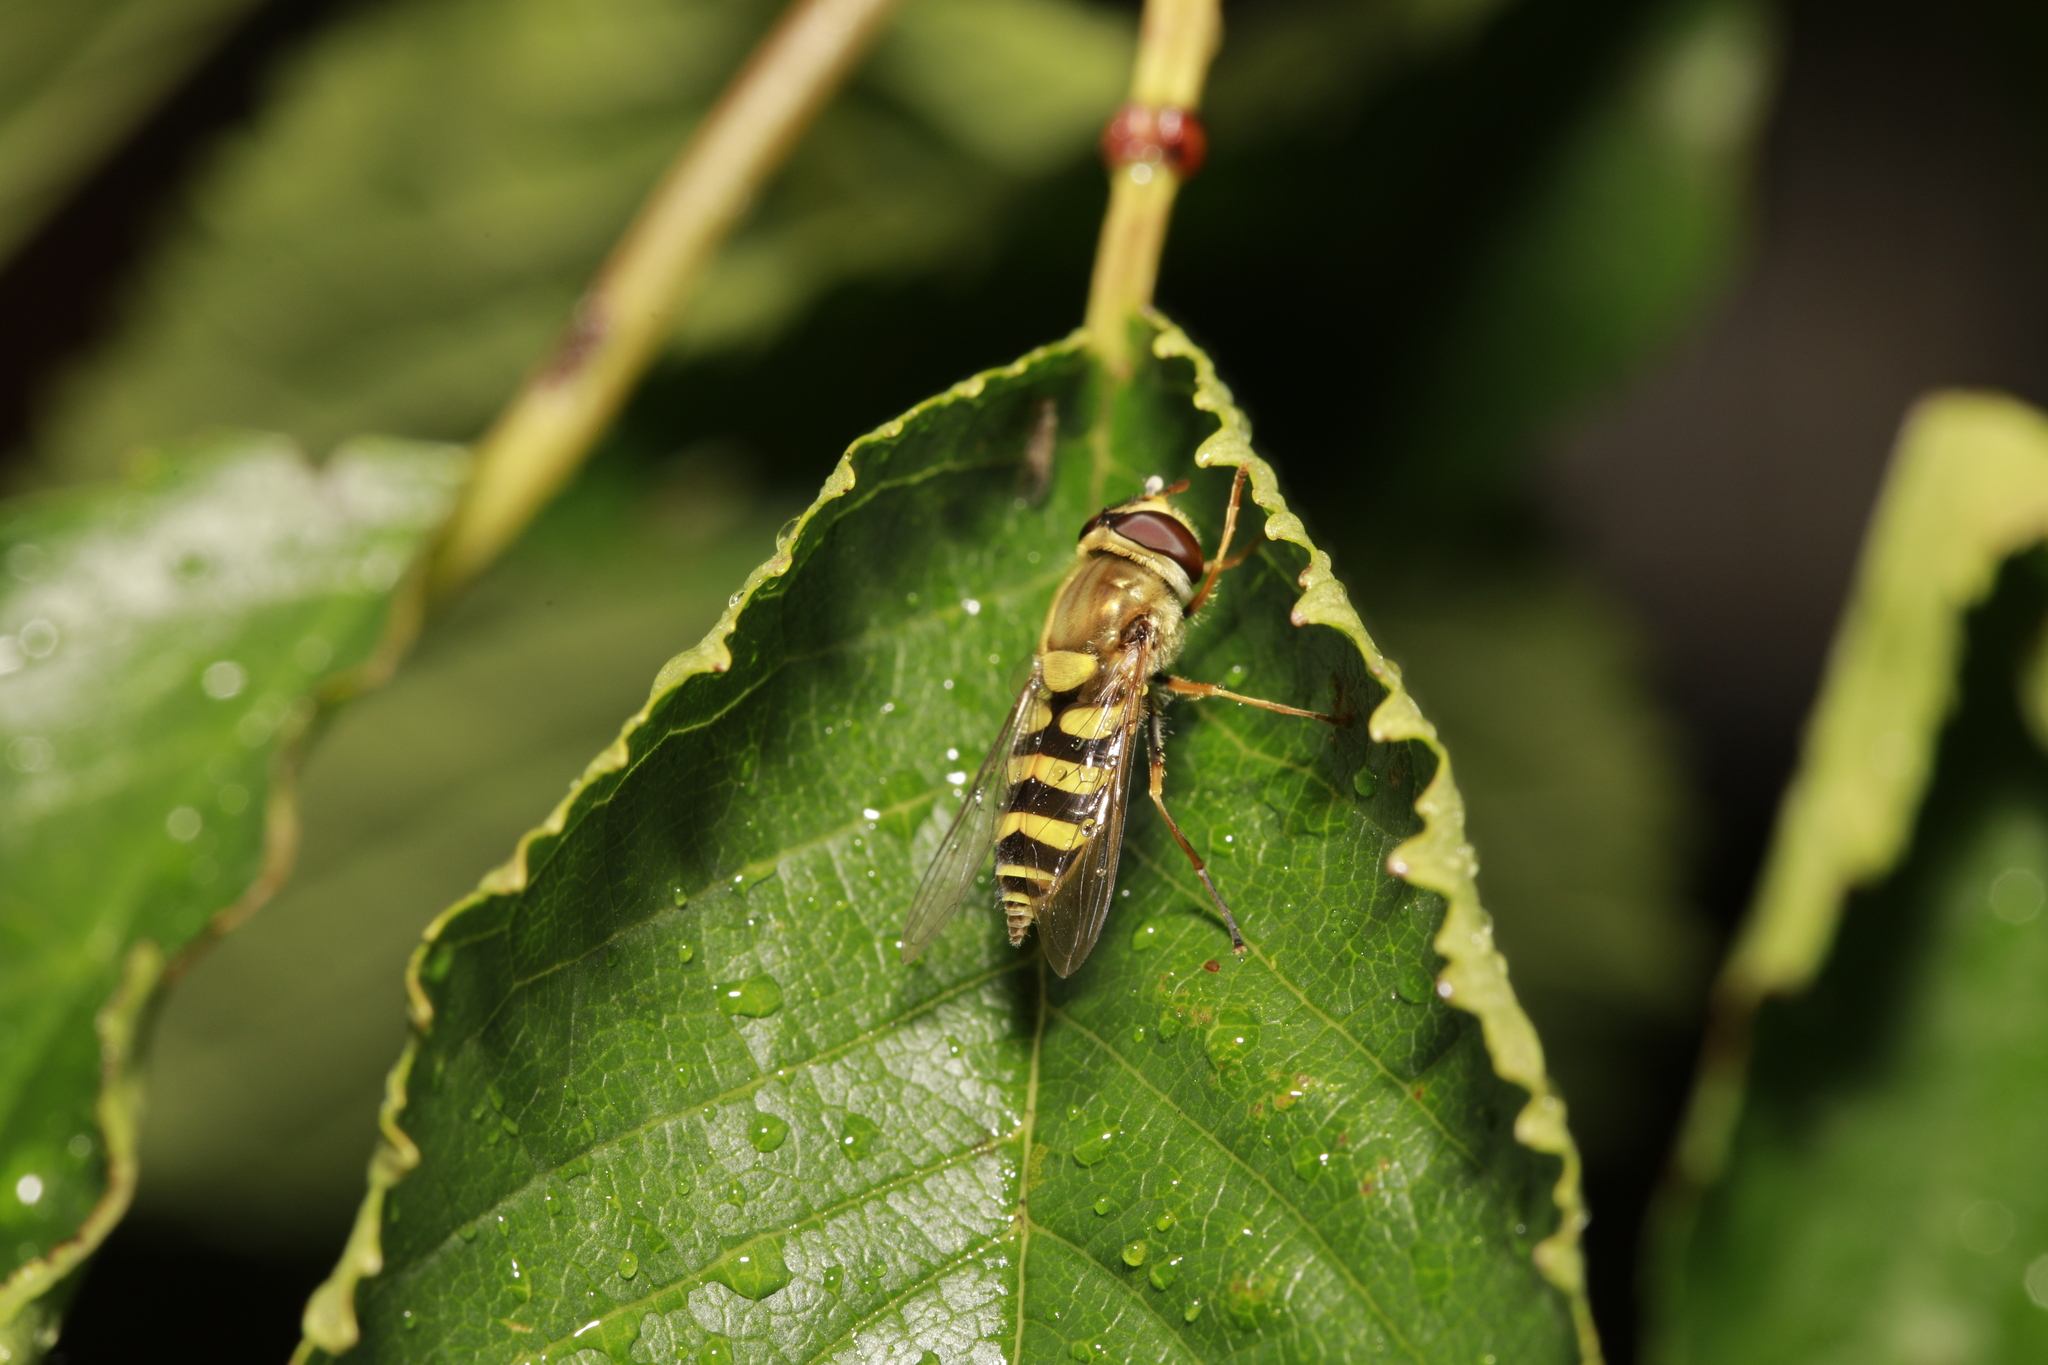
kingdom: Animalia
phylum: Arthropoda
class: Insecta
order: Diptera
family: Syrphidae
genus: Syrphus
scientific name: Syrphus
